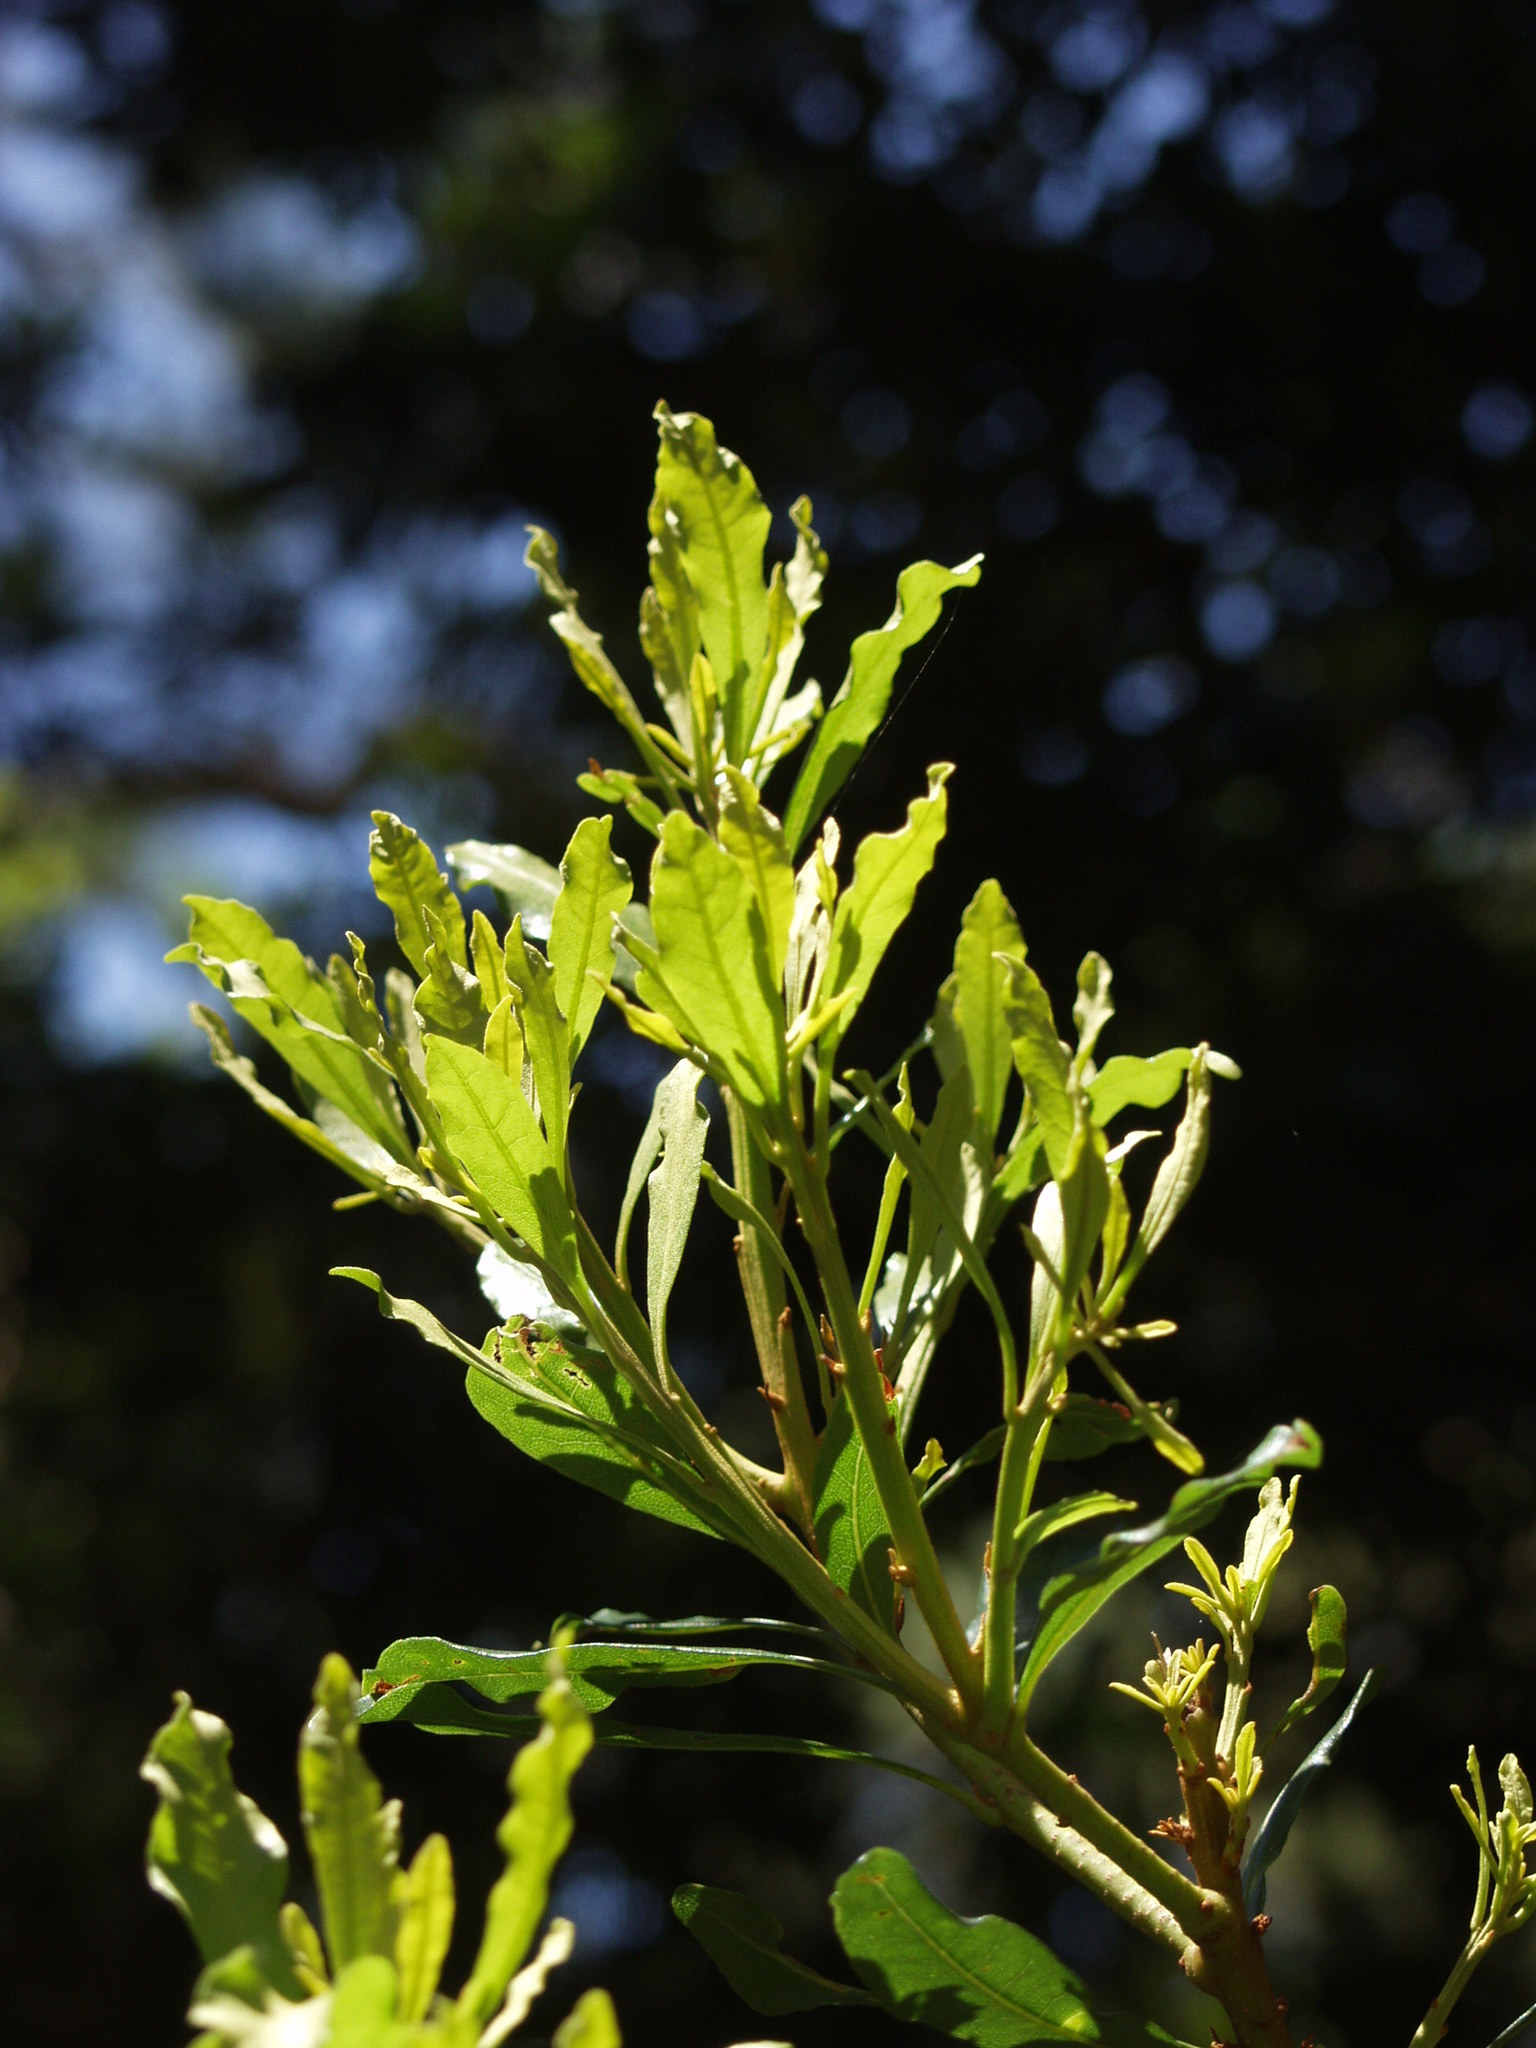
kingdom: Plantae
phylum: Tracheophyta
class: Magnoliopsida
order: Fagales
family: Myricaceae
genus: Morella
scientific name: Morella faya
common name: Firetree
